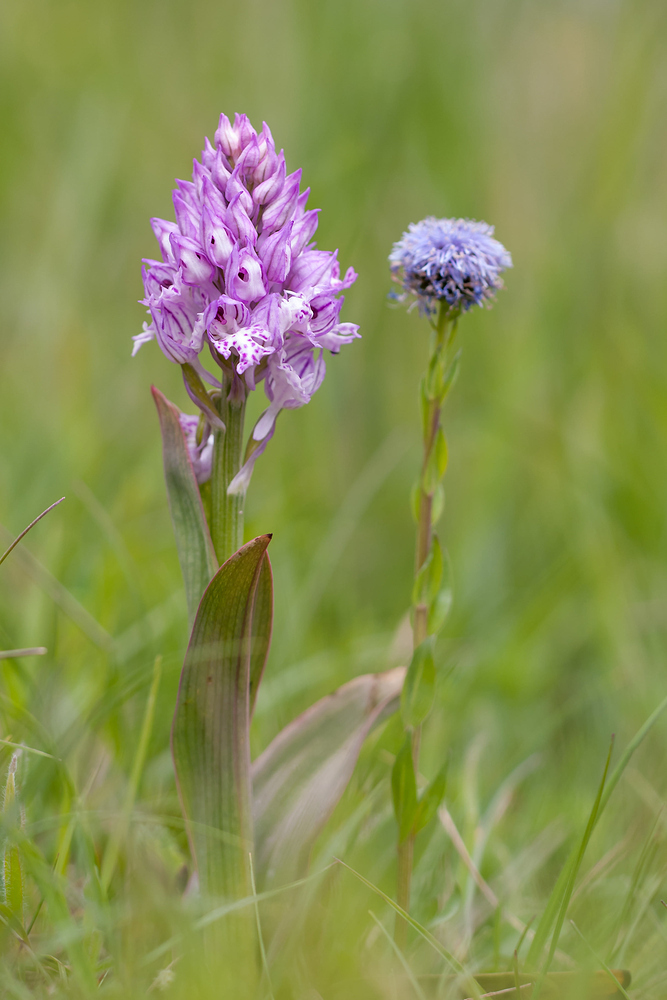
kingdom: Plantae
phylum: Tracheophyta
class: Liliopsida
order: Asparagales
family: Orchidaceae
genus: Neotinea
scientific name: Neotinea tridentata
